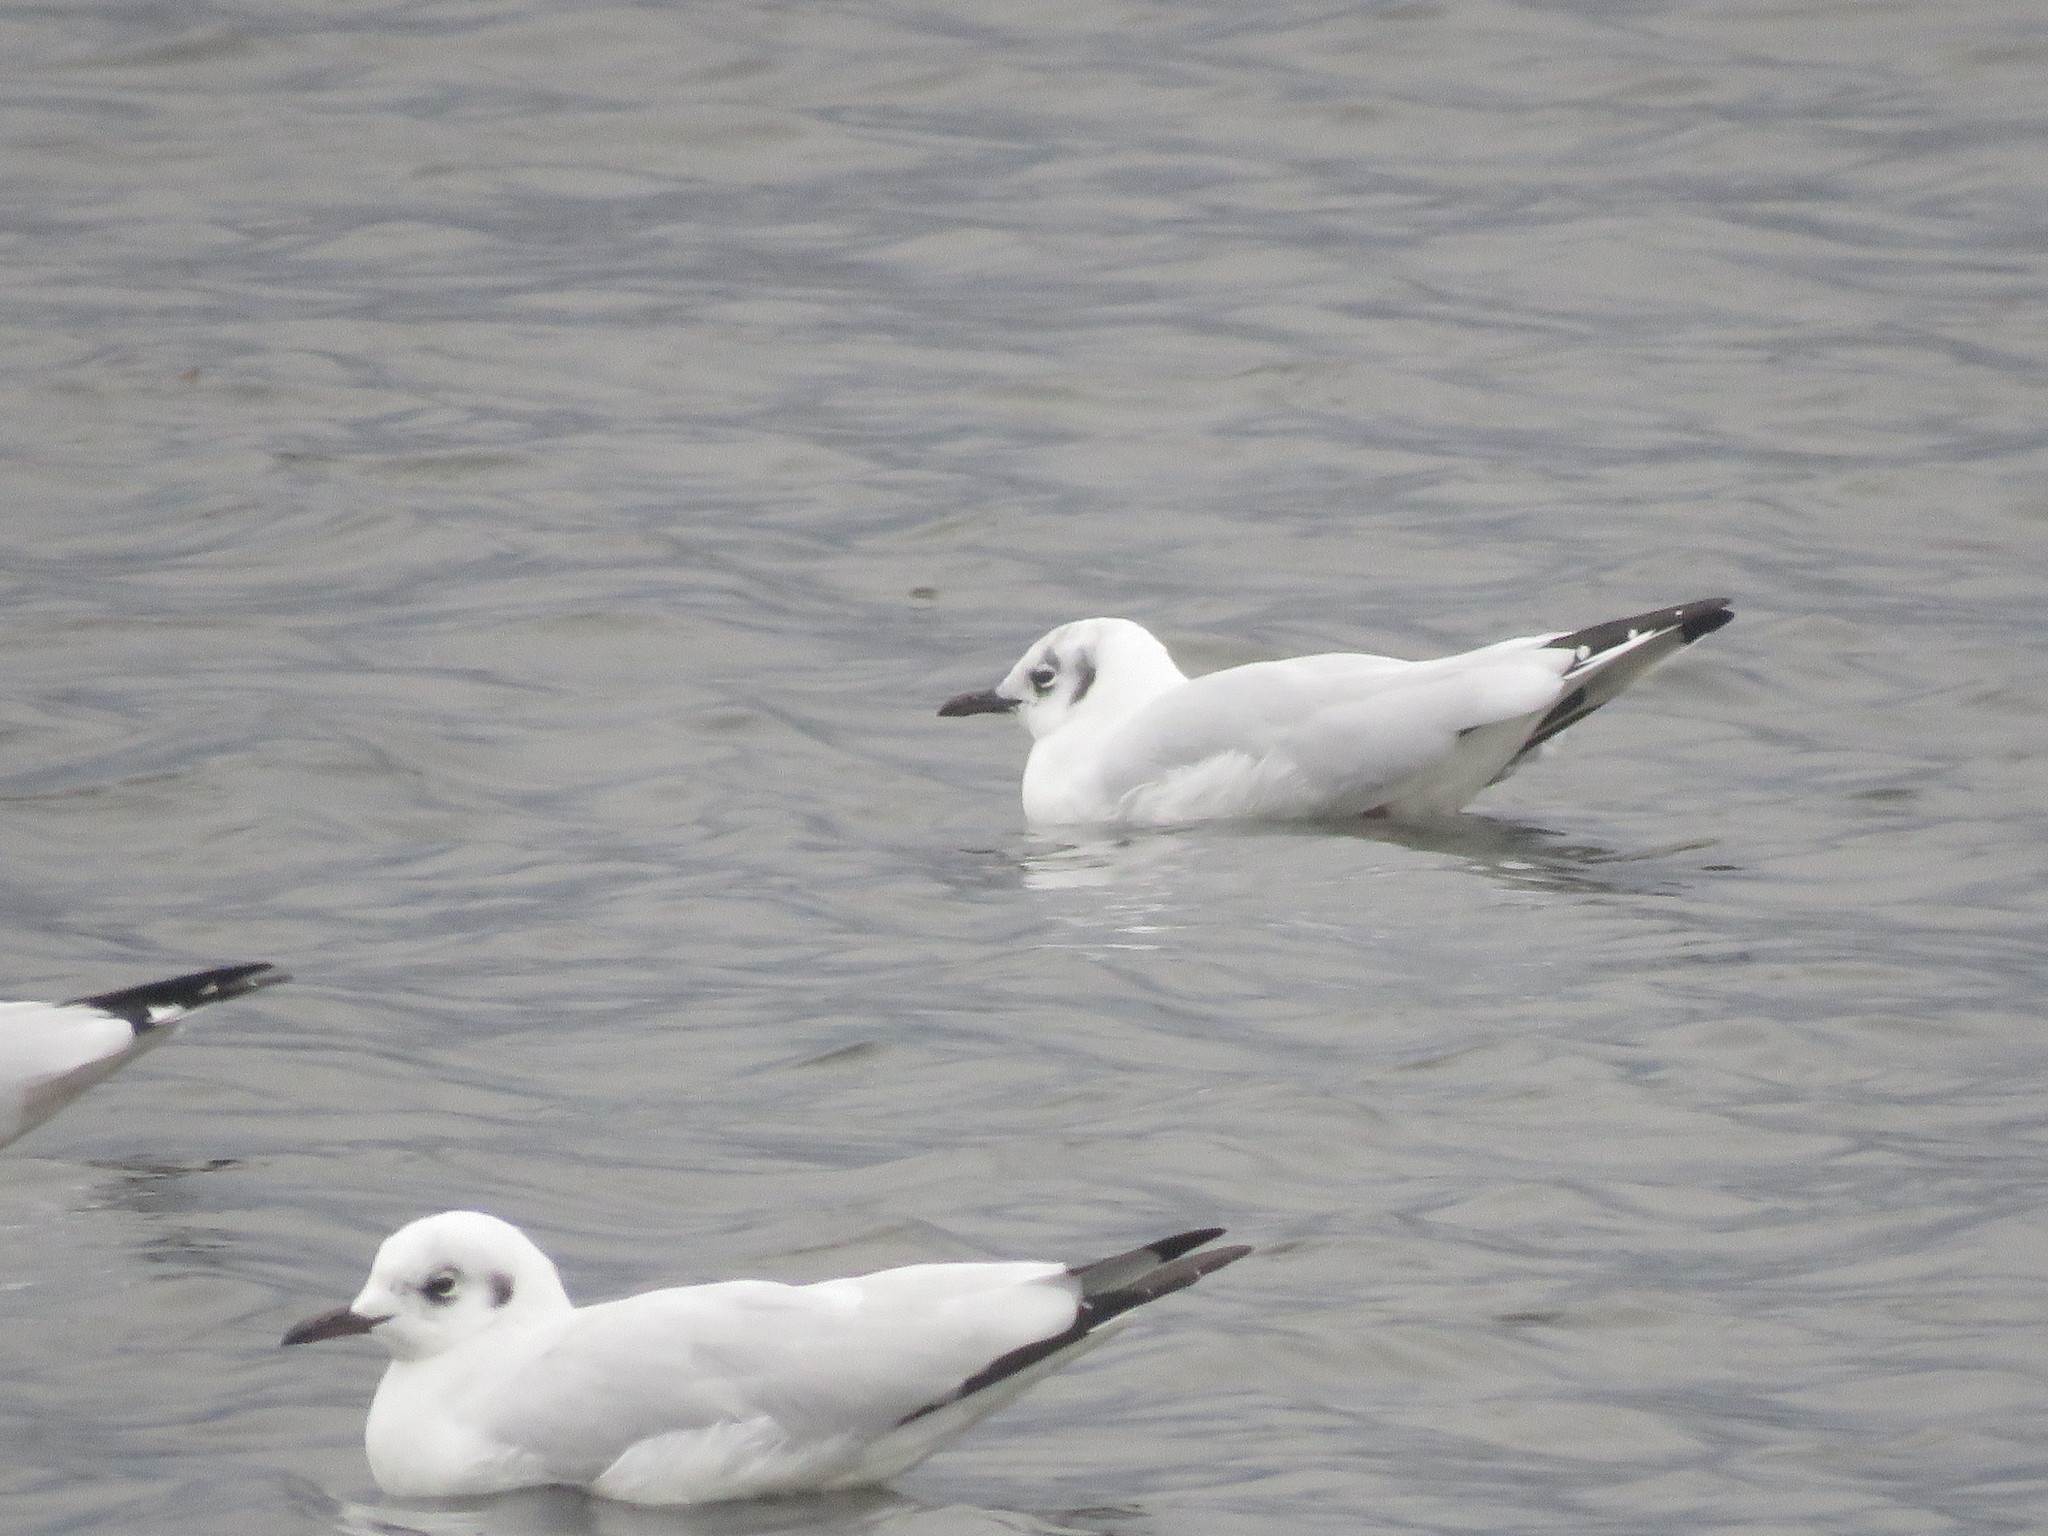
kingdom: Animalia
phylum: Chordata
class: Aves
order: Charadriiformes
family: Laridae
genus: Chroicocephalus
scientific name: Chroicocephalus serranus
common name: Andean gull
